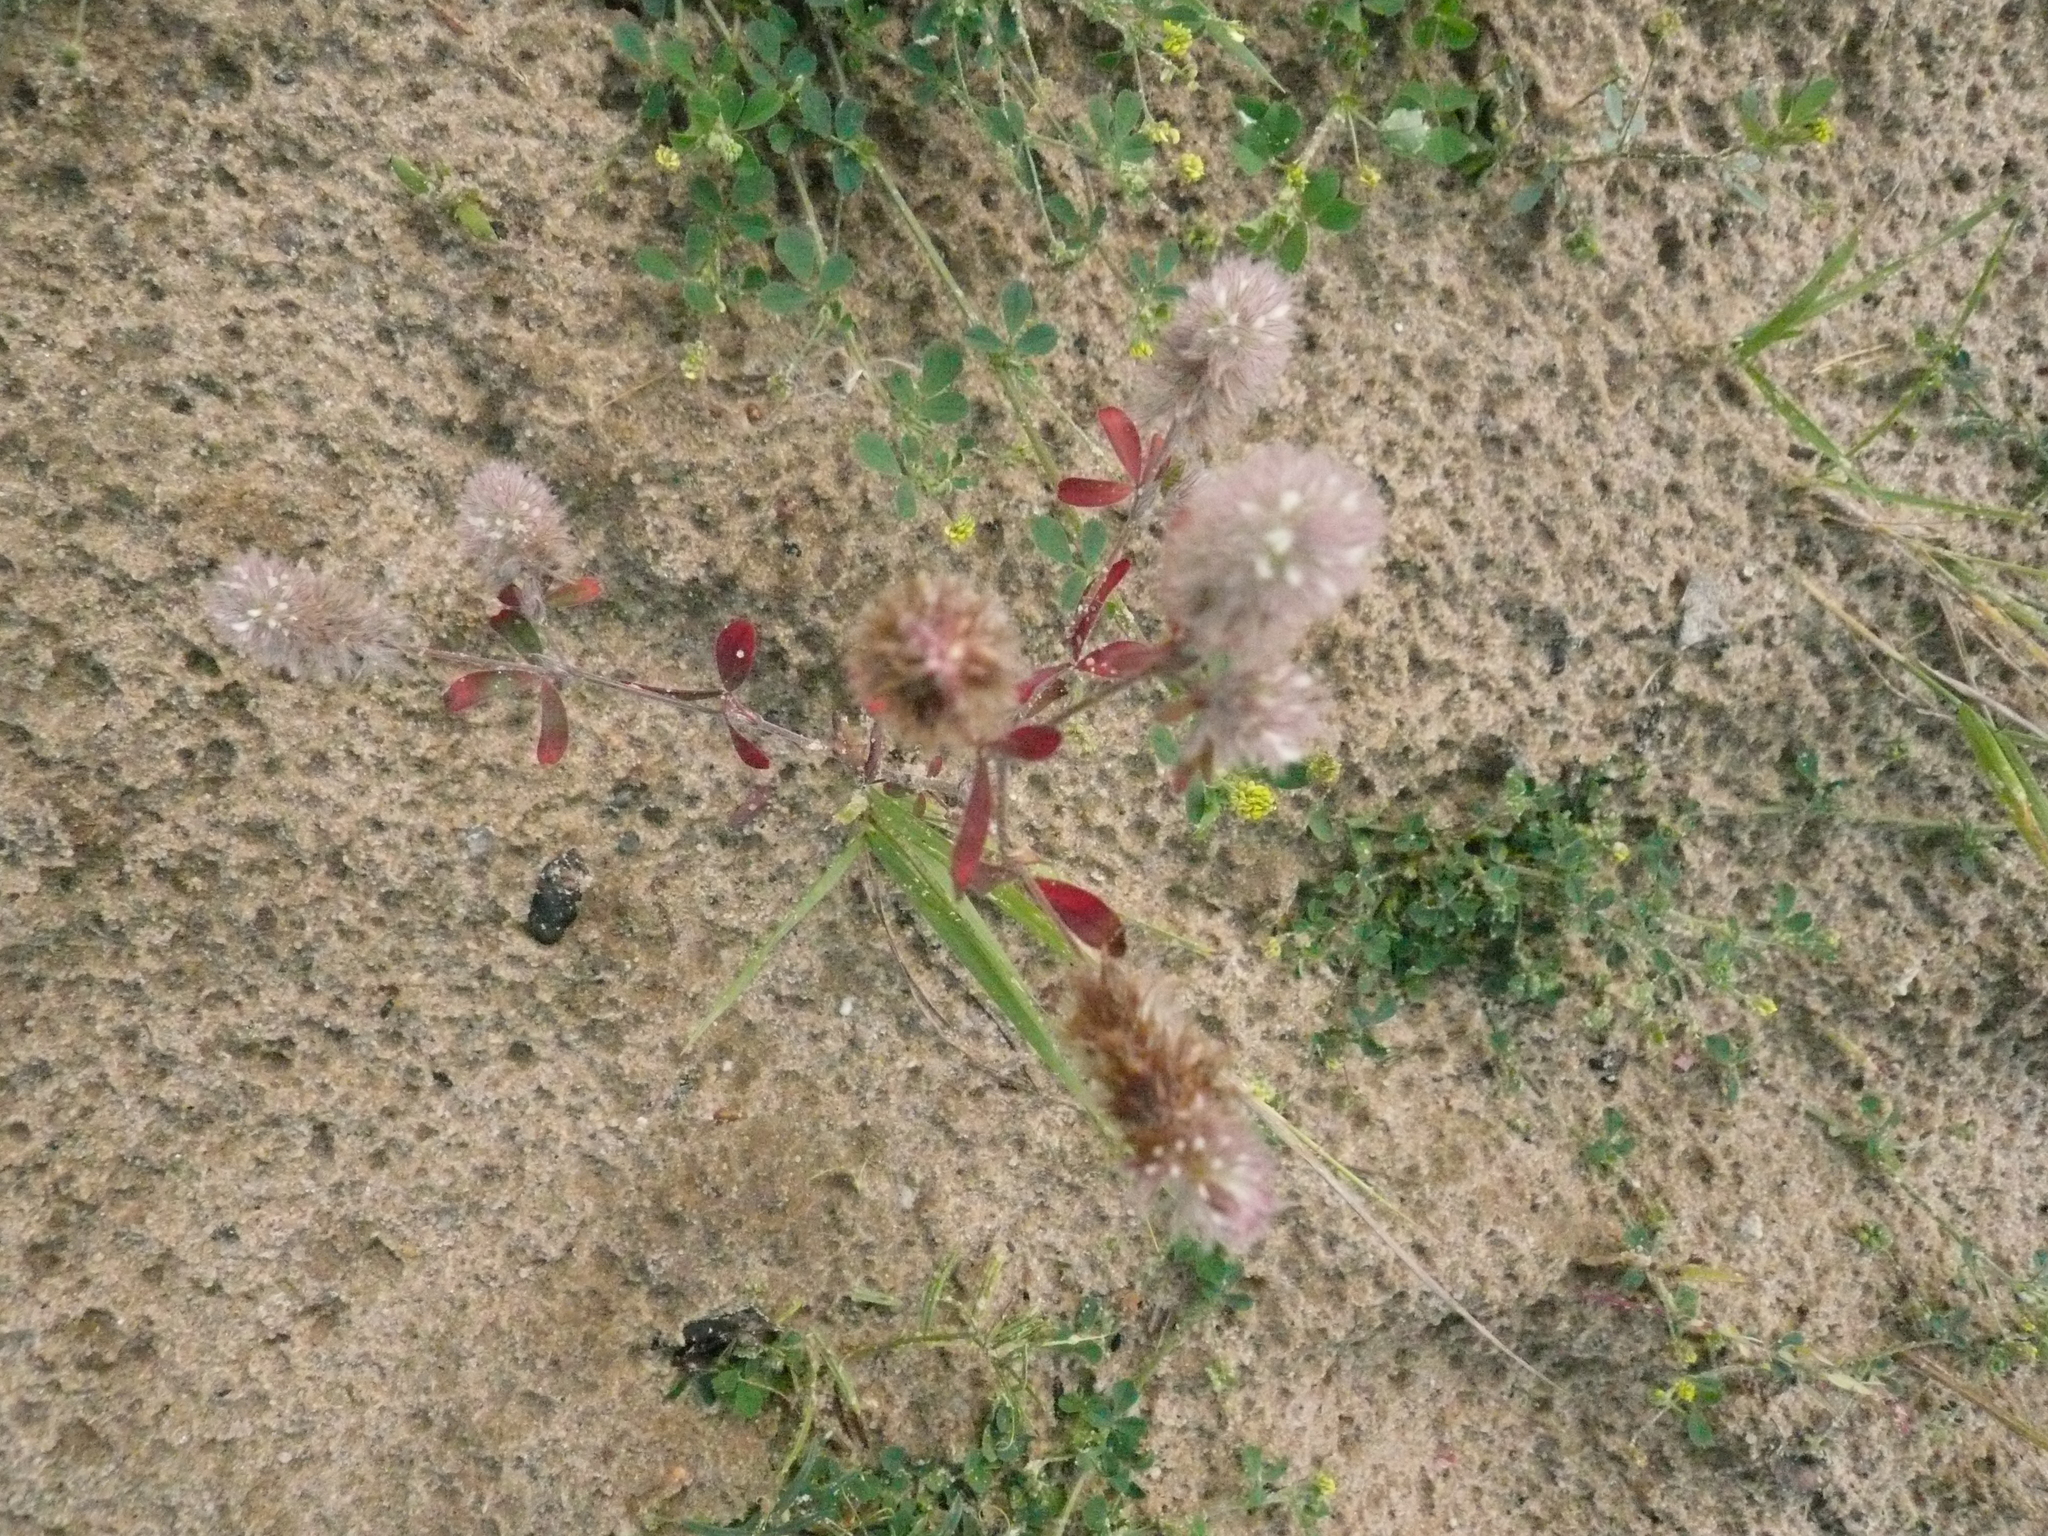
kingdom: Plantae
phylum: Tracheophyta
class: Magnoliopsida
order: Fabales
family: Fabaceae
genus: Trifolium
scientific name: Trifolium arvense
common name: Hare's-foot clover
